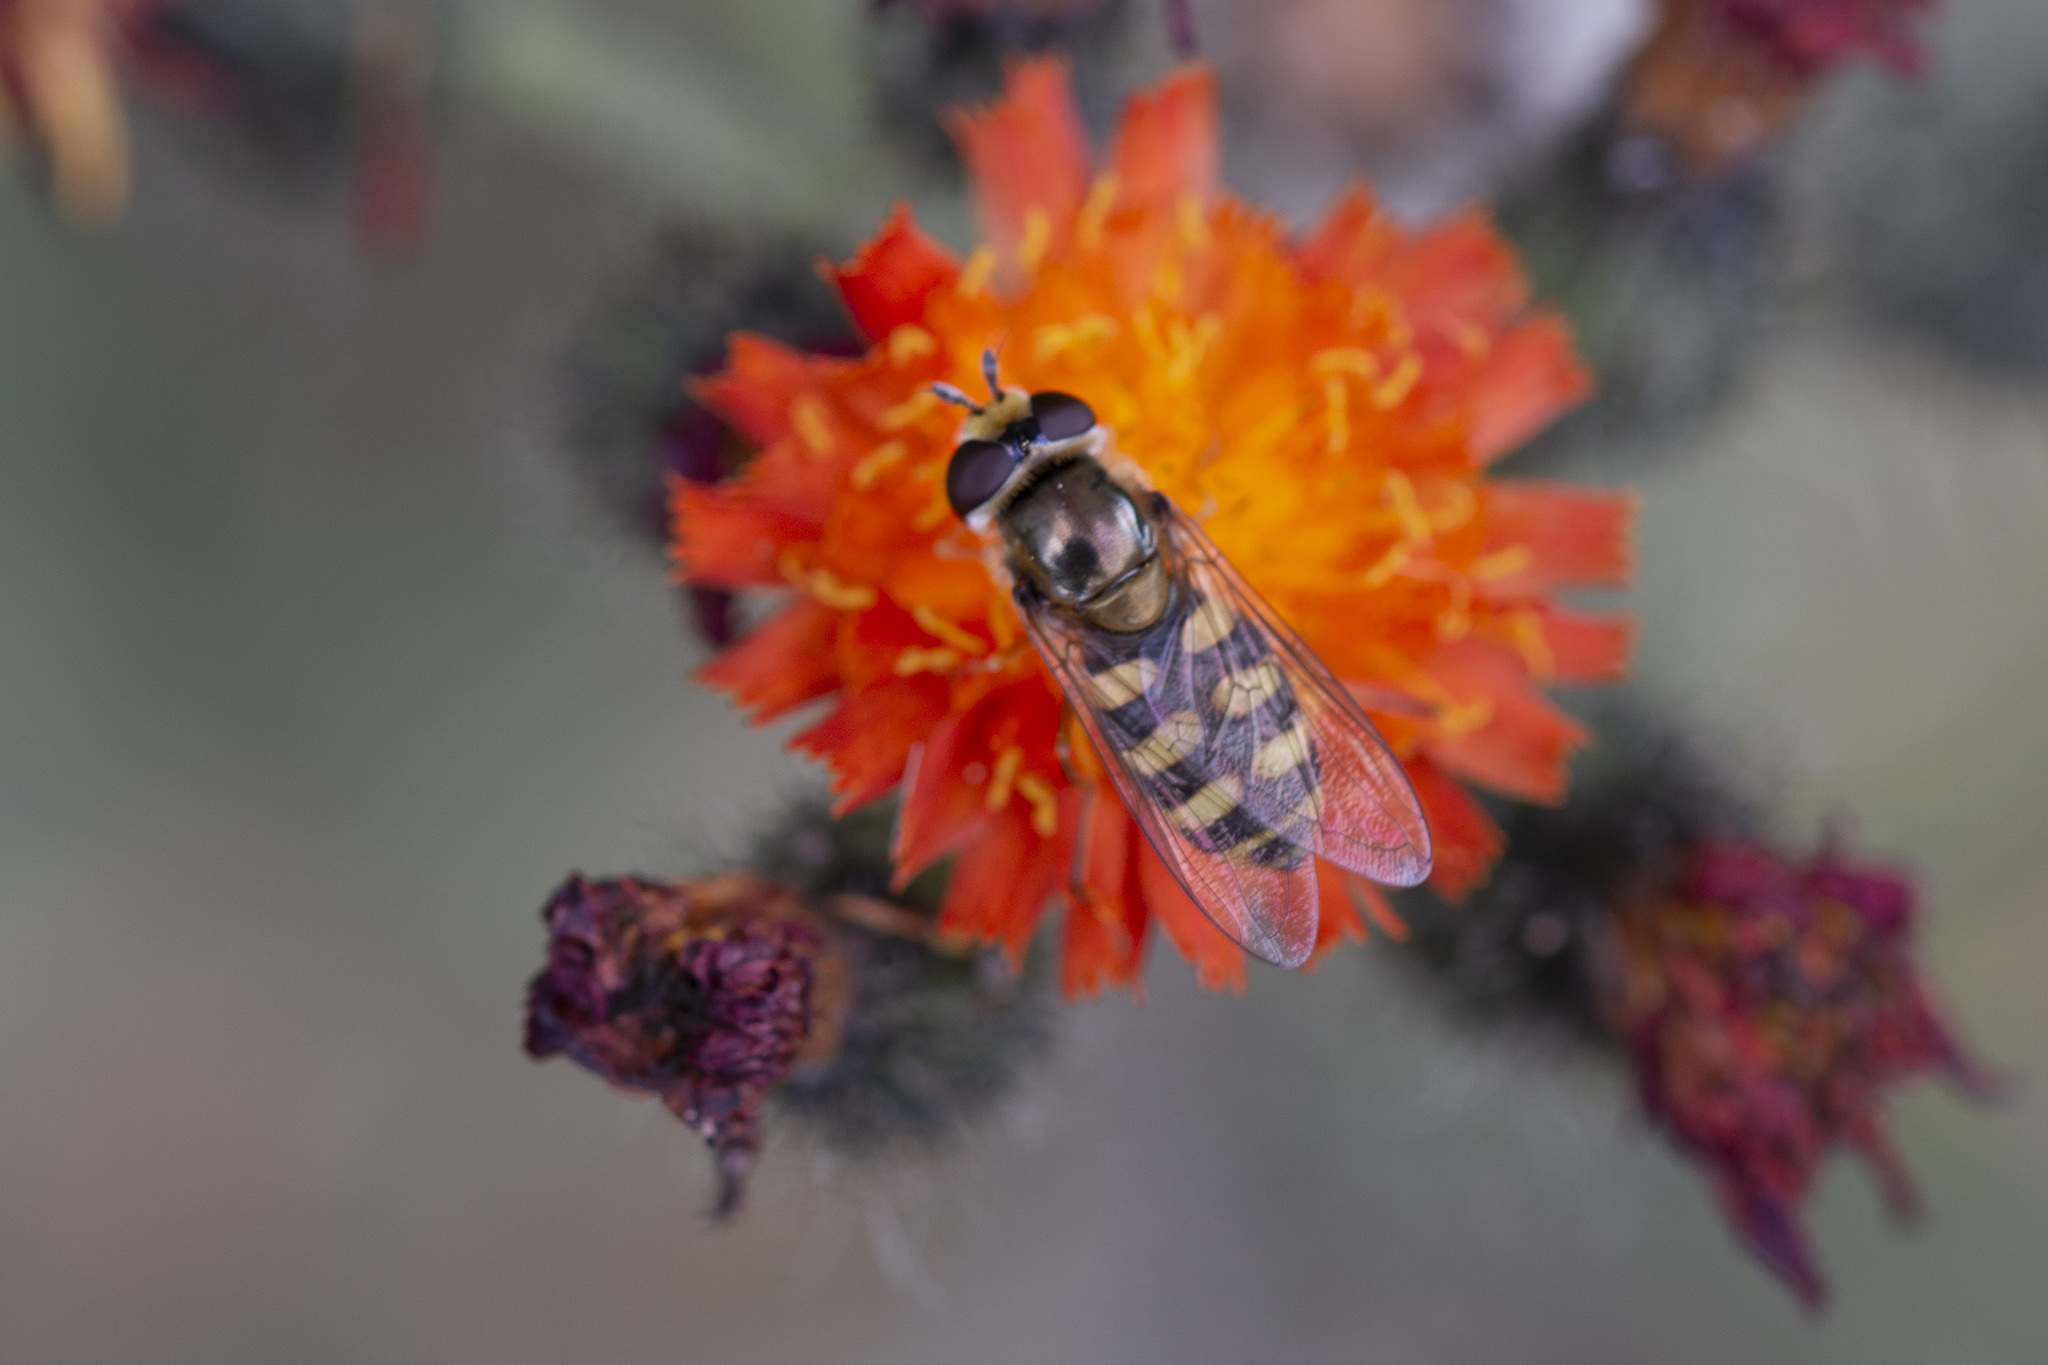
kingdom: Animalia
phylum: Arthropoda
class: Insecta
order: Diptera
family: Syrphidae
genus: Eupeodes
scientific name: Eupeodes corollae
